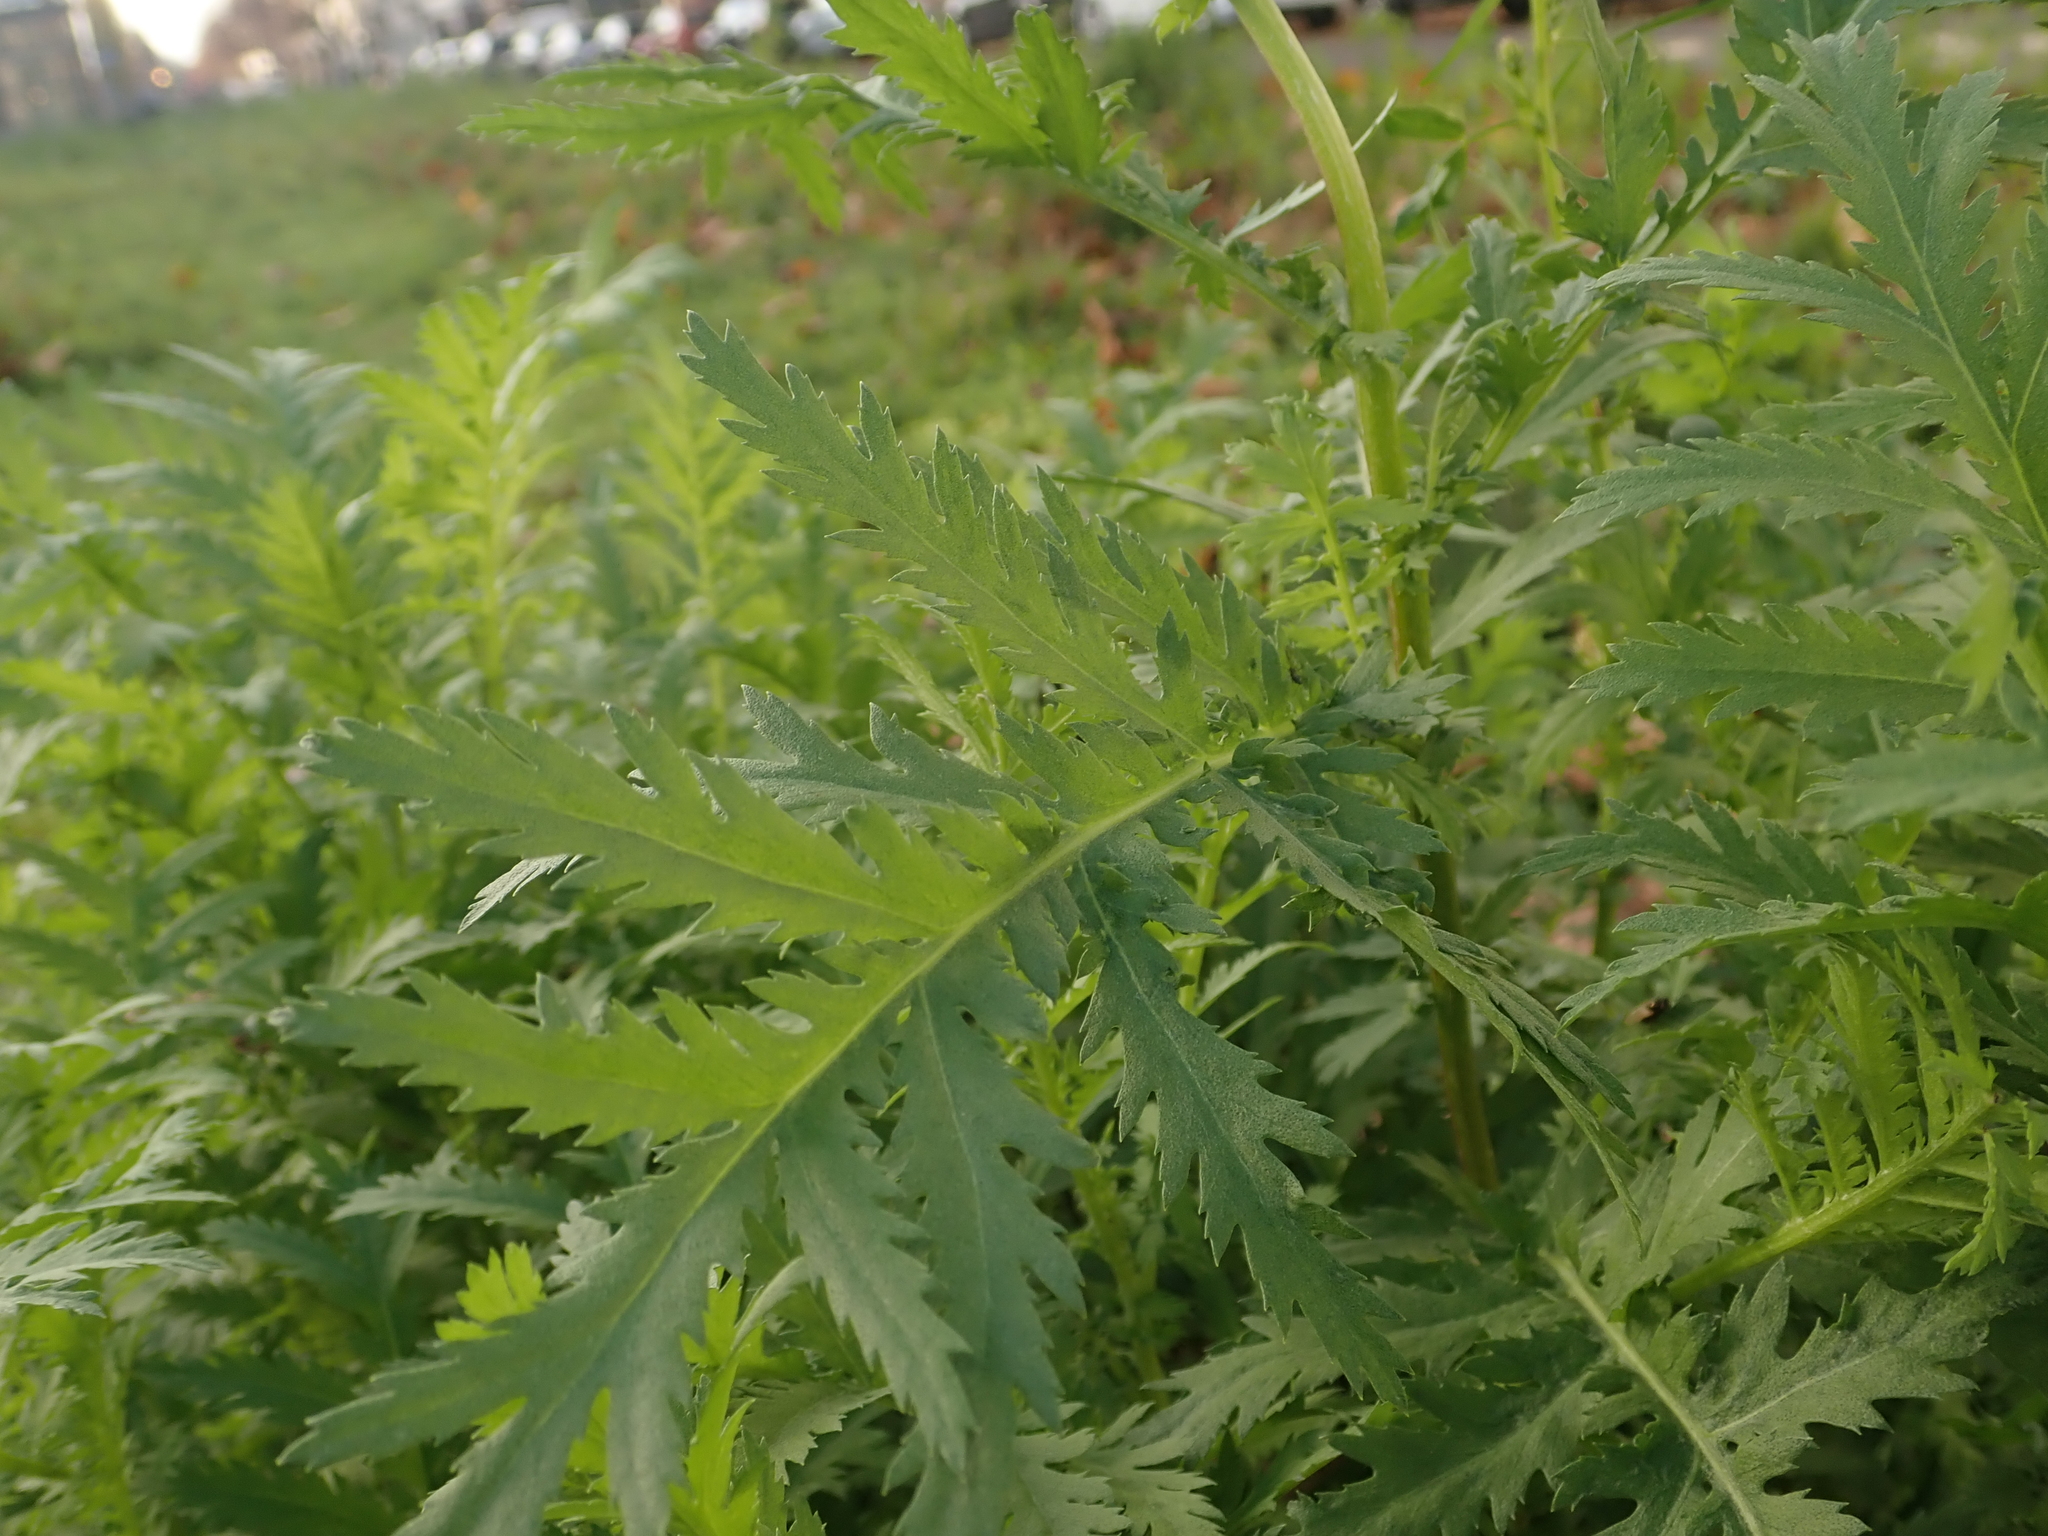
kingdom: Plantae
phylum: Tracheophyta
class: Magnoliopsida
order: Asterales
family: Asteraceae
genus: Tanacetum
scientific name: Tanacetum vulgare
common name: Common tansy
